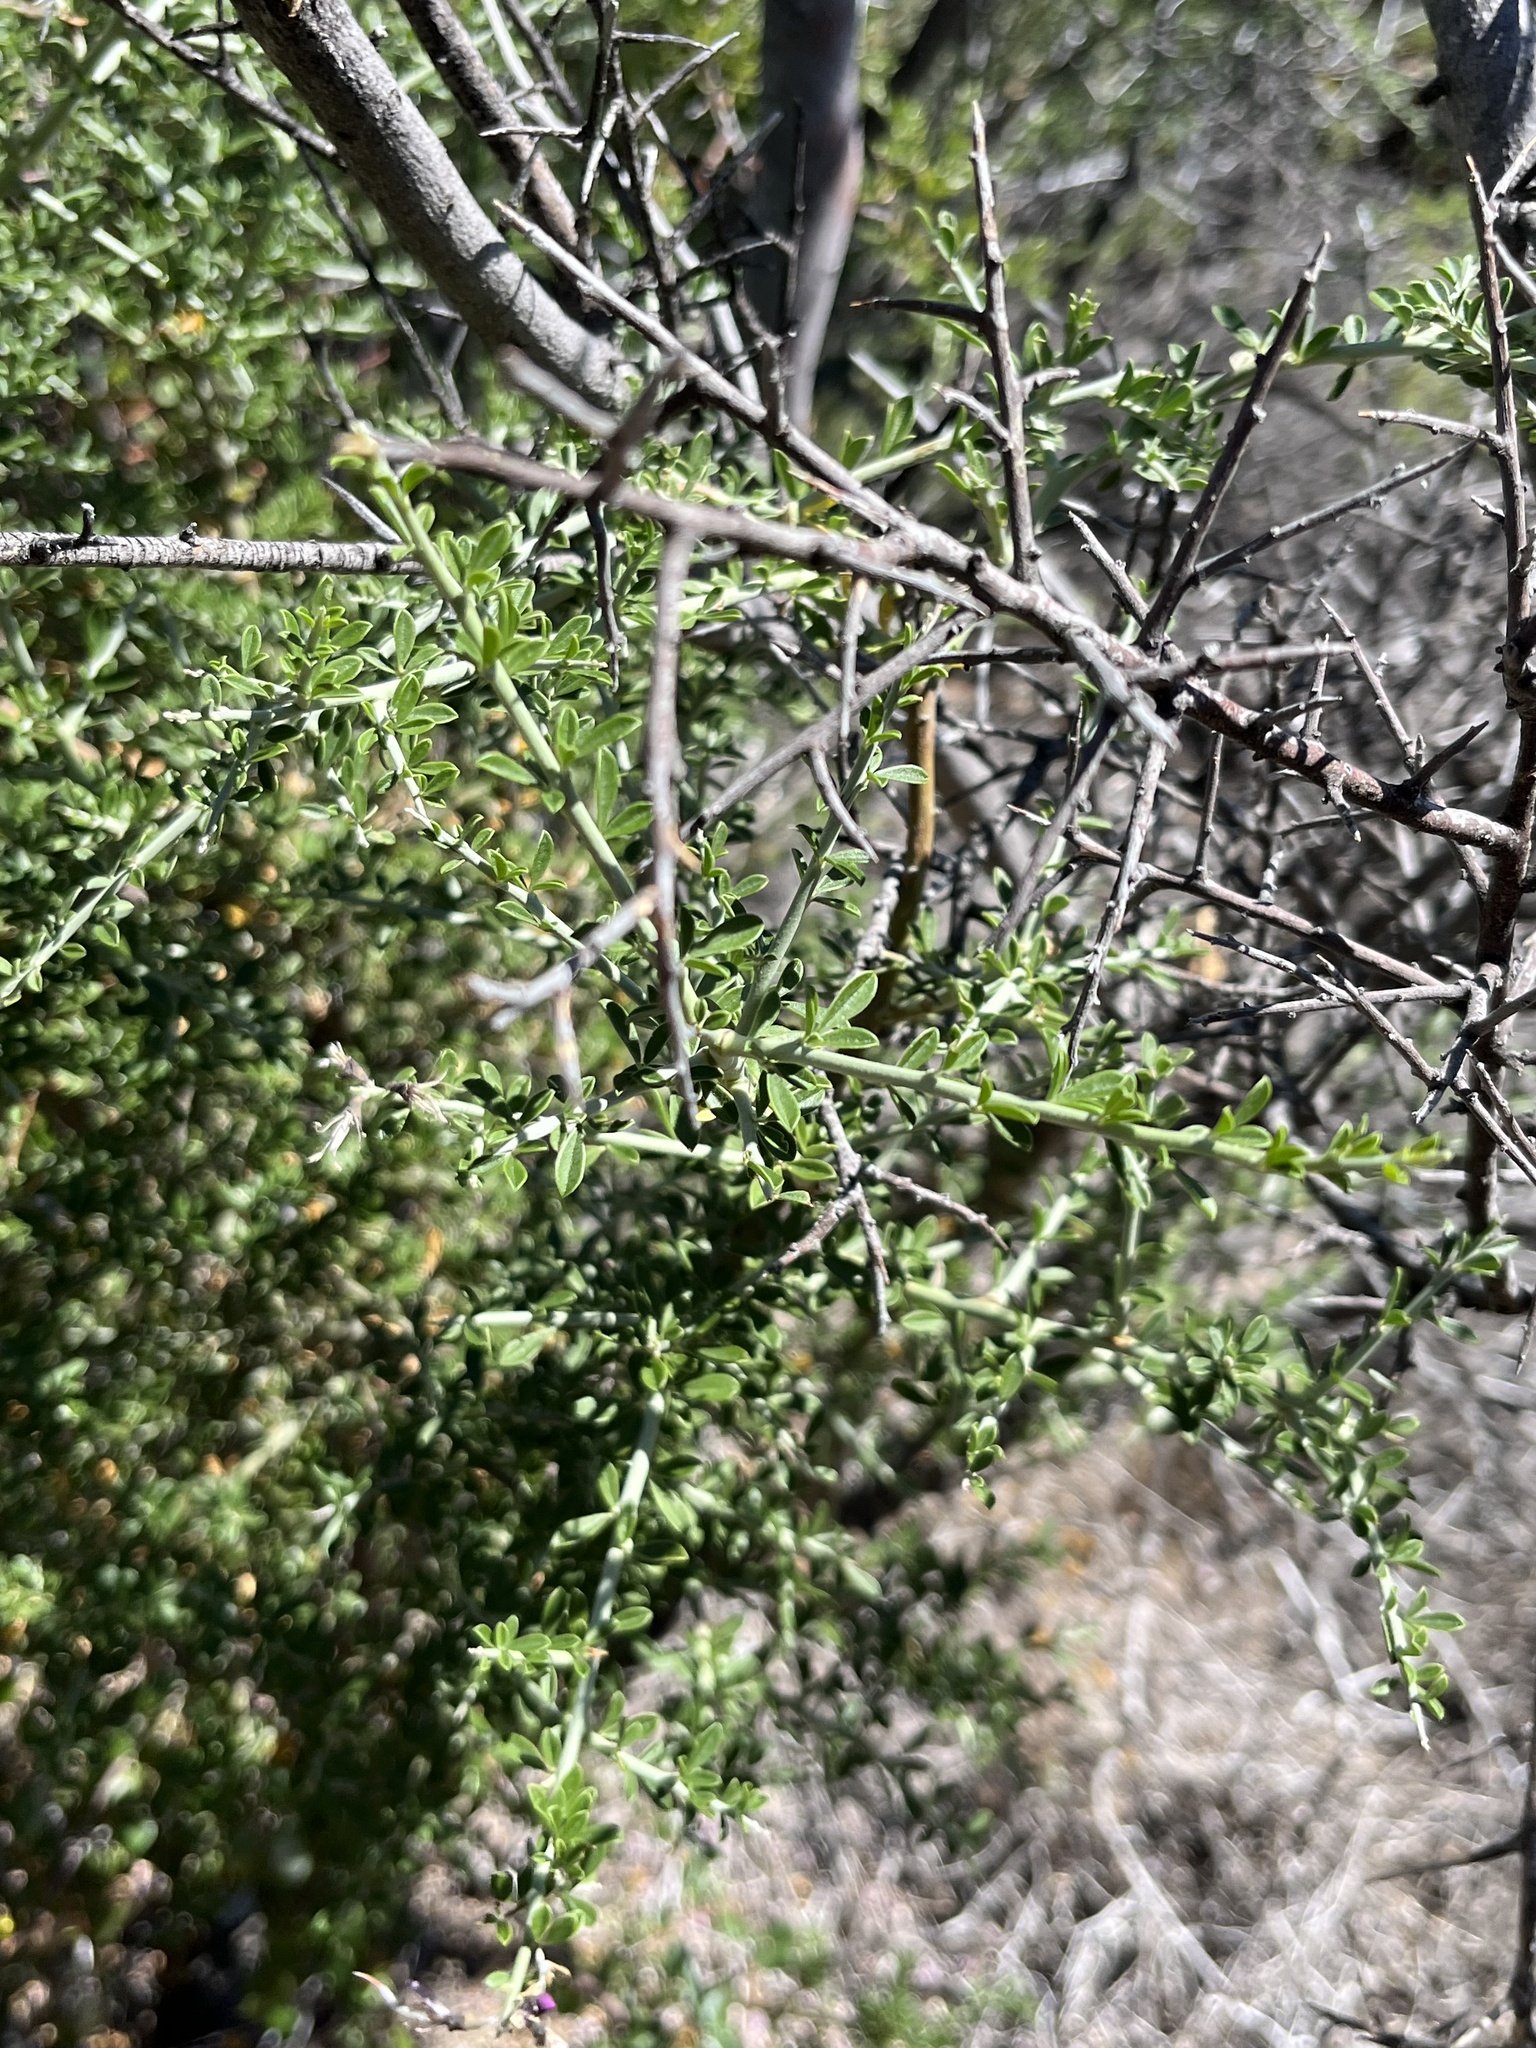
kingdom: Plantae
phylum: Tracheophyta
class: Magnoliopsida
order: Fabales
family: Fabaceae
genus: Pickeringia
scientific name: Pickeringia montana
